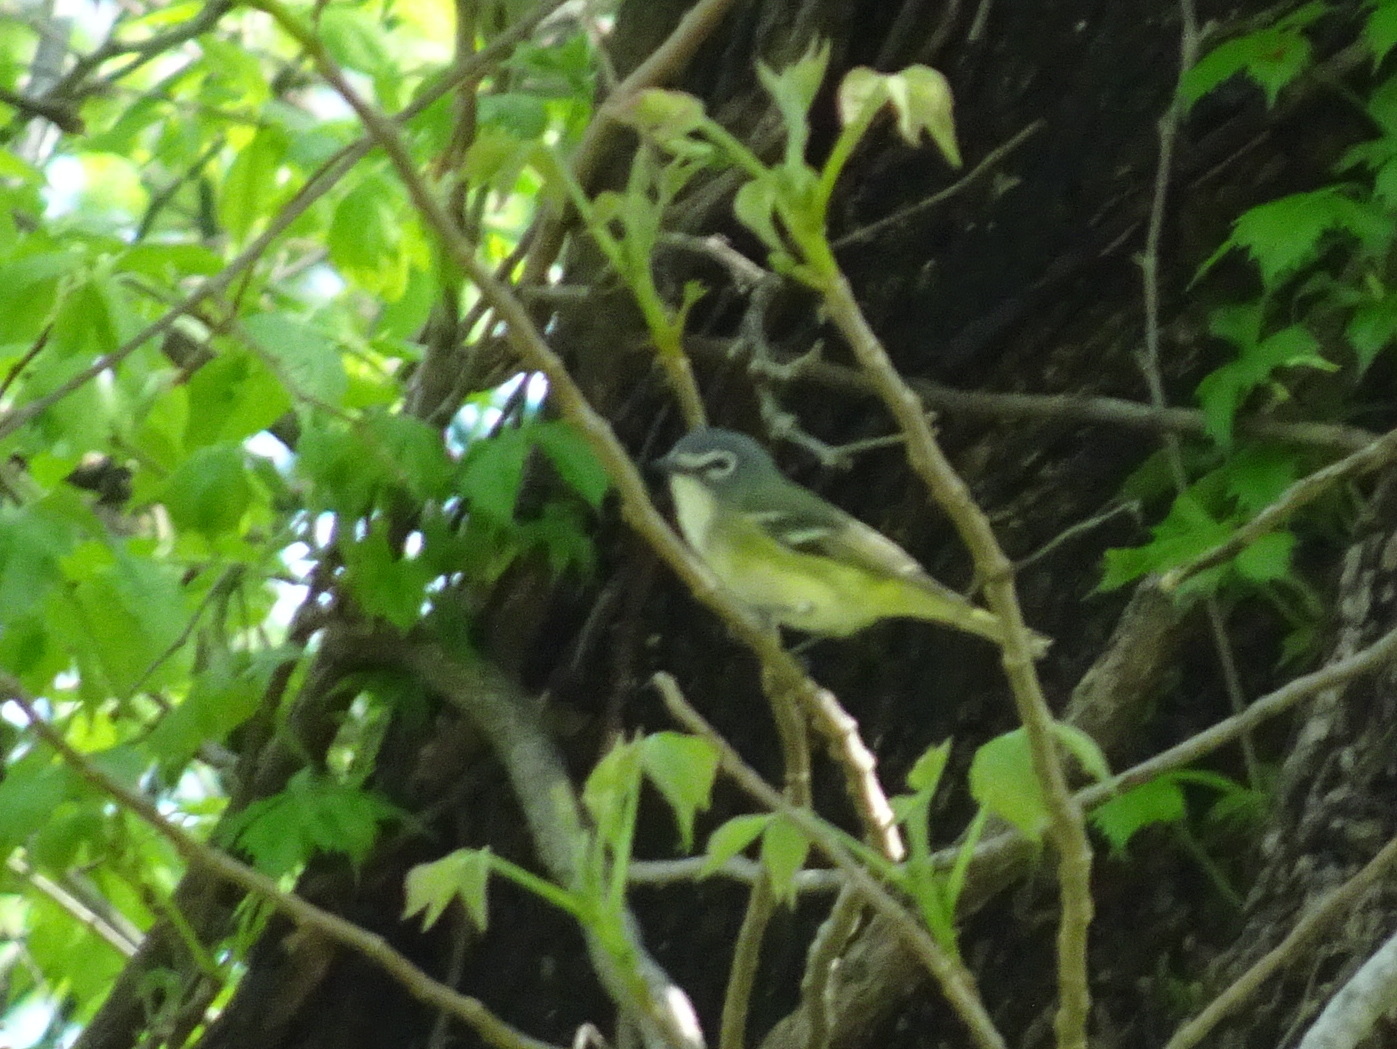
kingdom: Animalia
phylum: Chordata
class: Aves
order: Passeriformes
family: Vireonidae
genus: Vireo
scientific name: Vireo solitarius
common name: Blue-headed vireo
